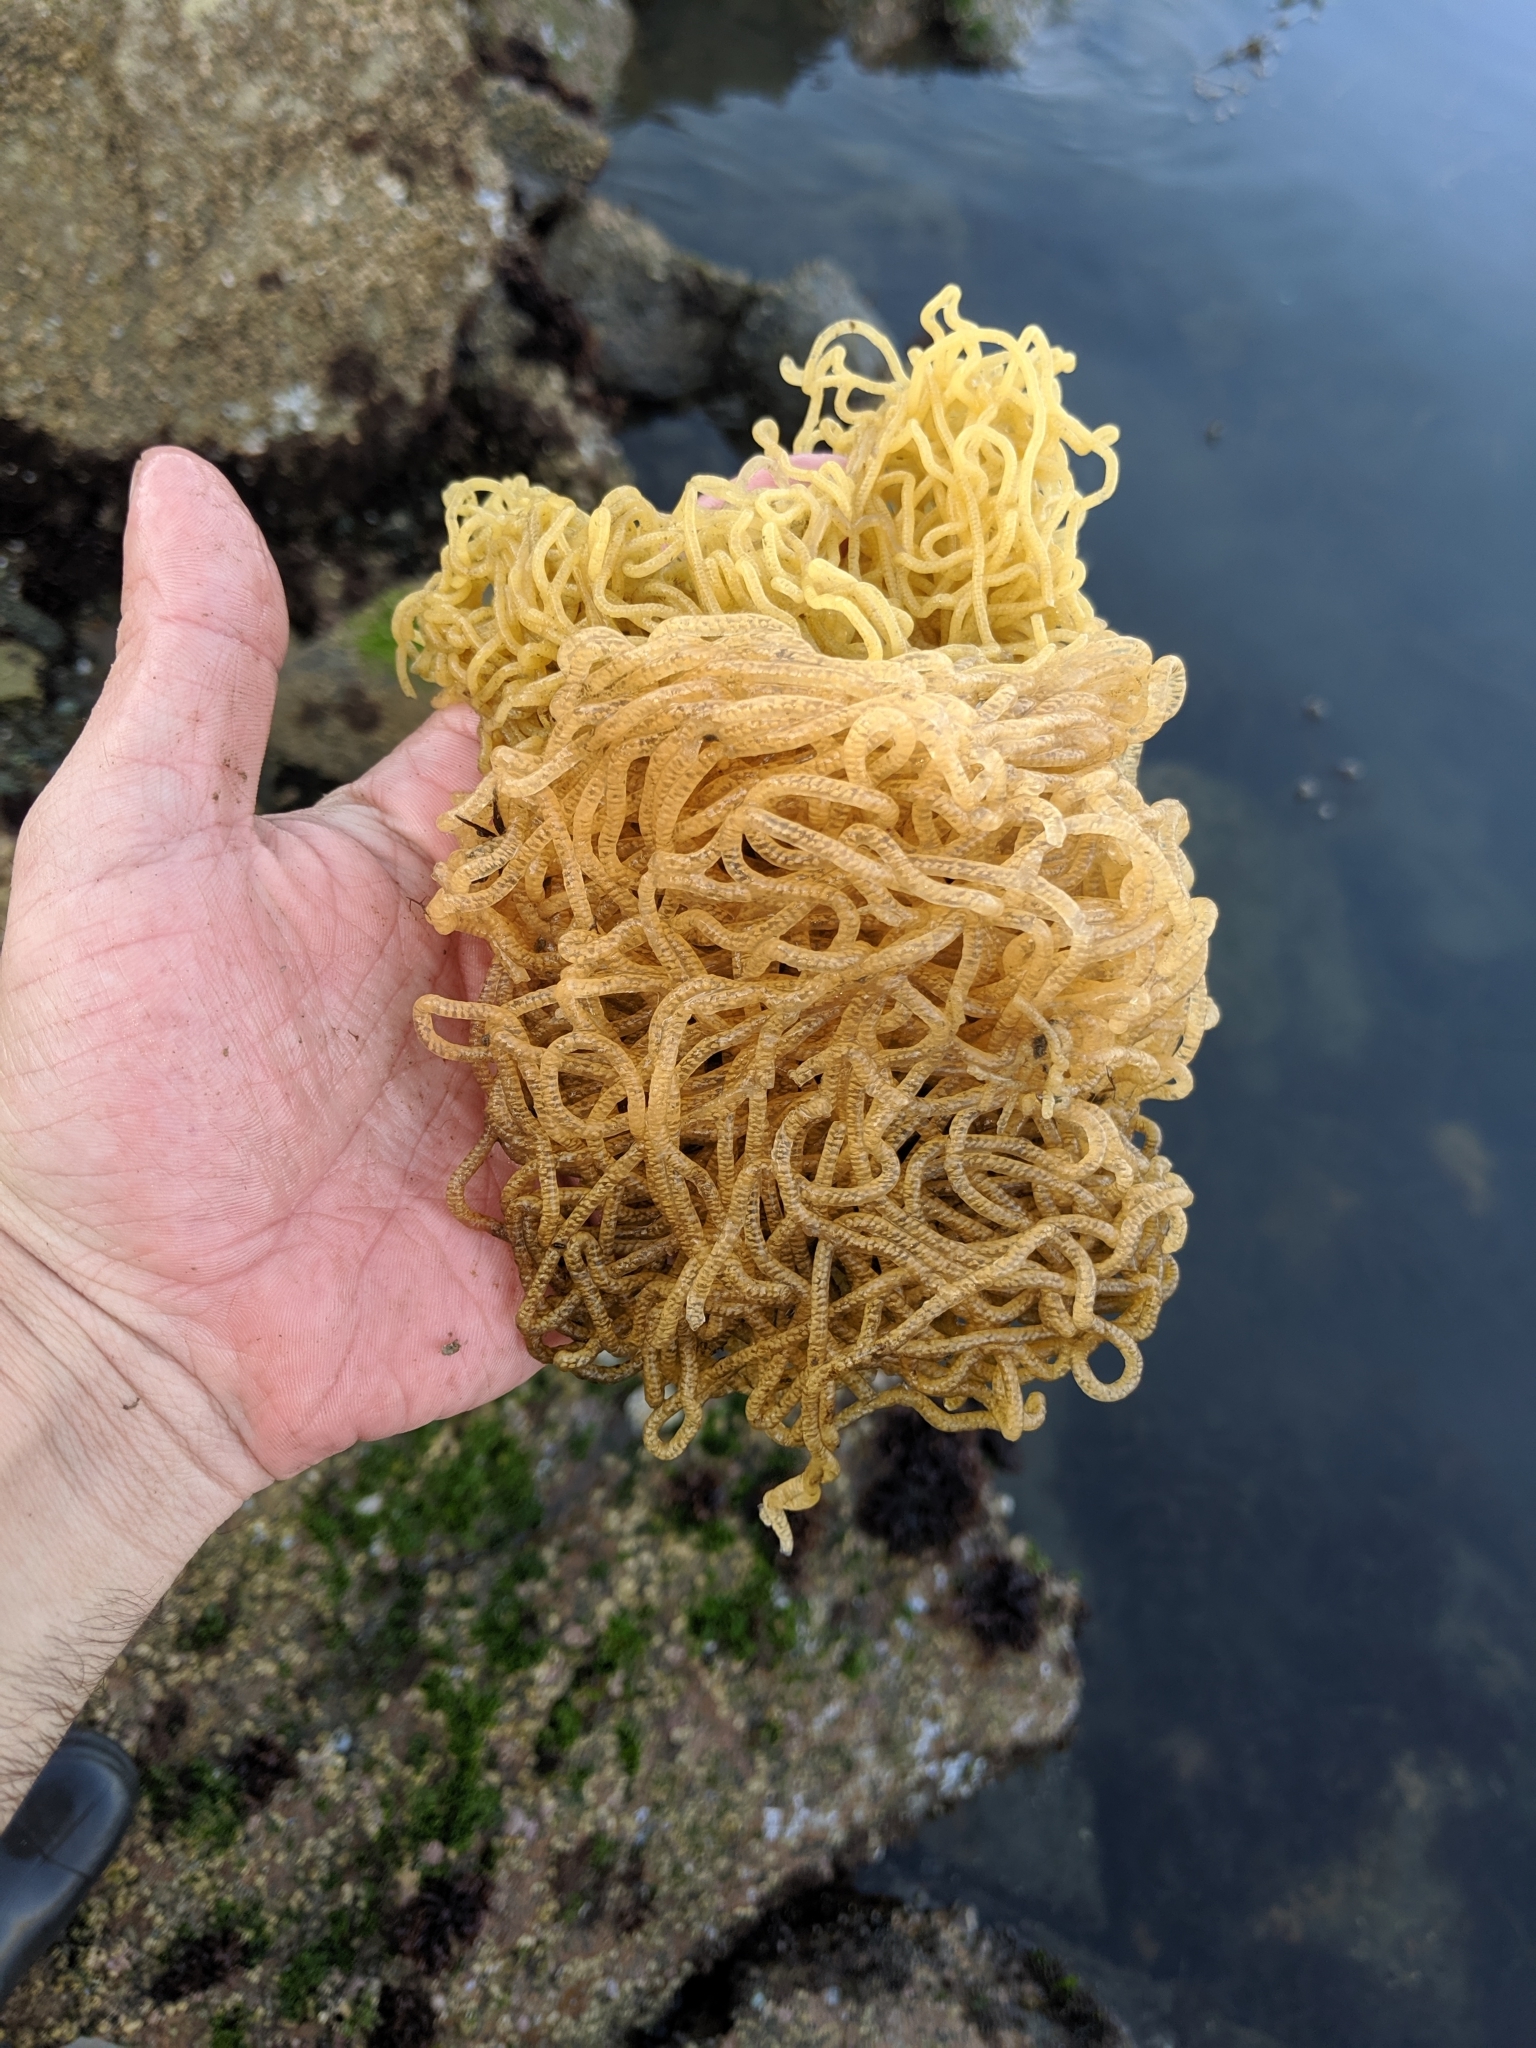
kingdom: Animalia
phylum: Mollusca
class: Gastropoda
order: Aplysiida
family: Aplysiidae
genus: Aplysia
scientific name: Aplysia vaccaria
